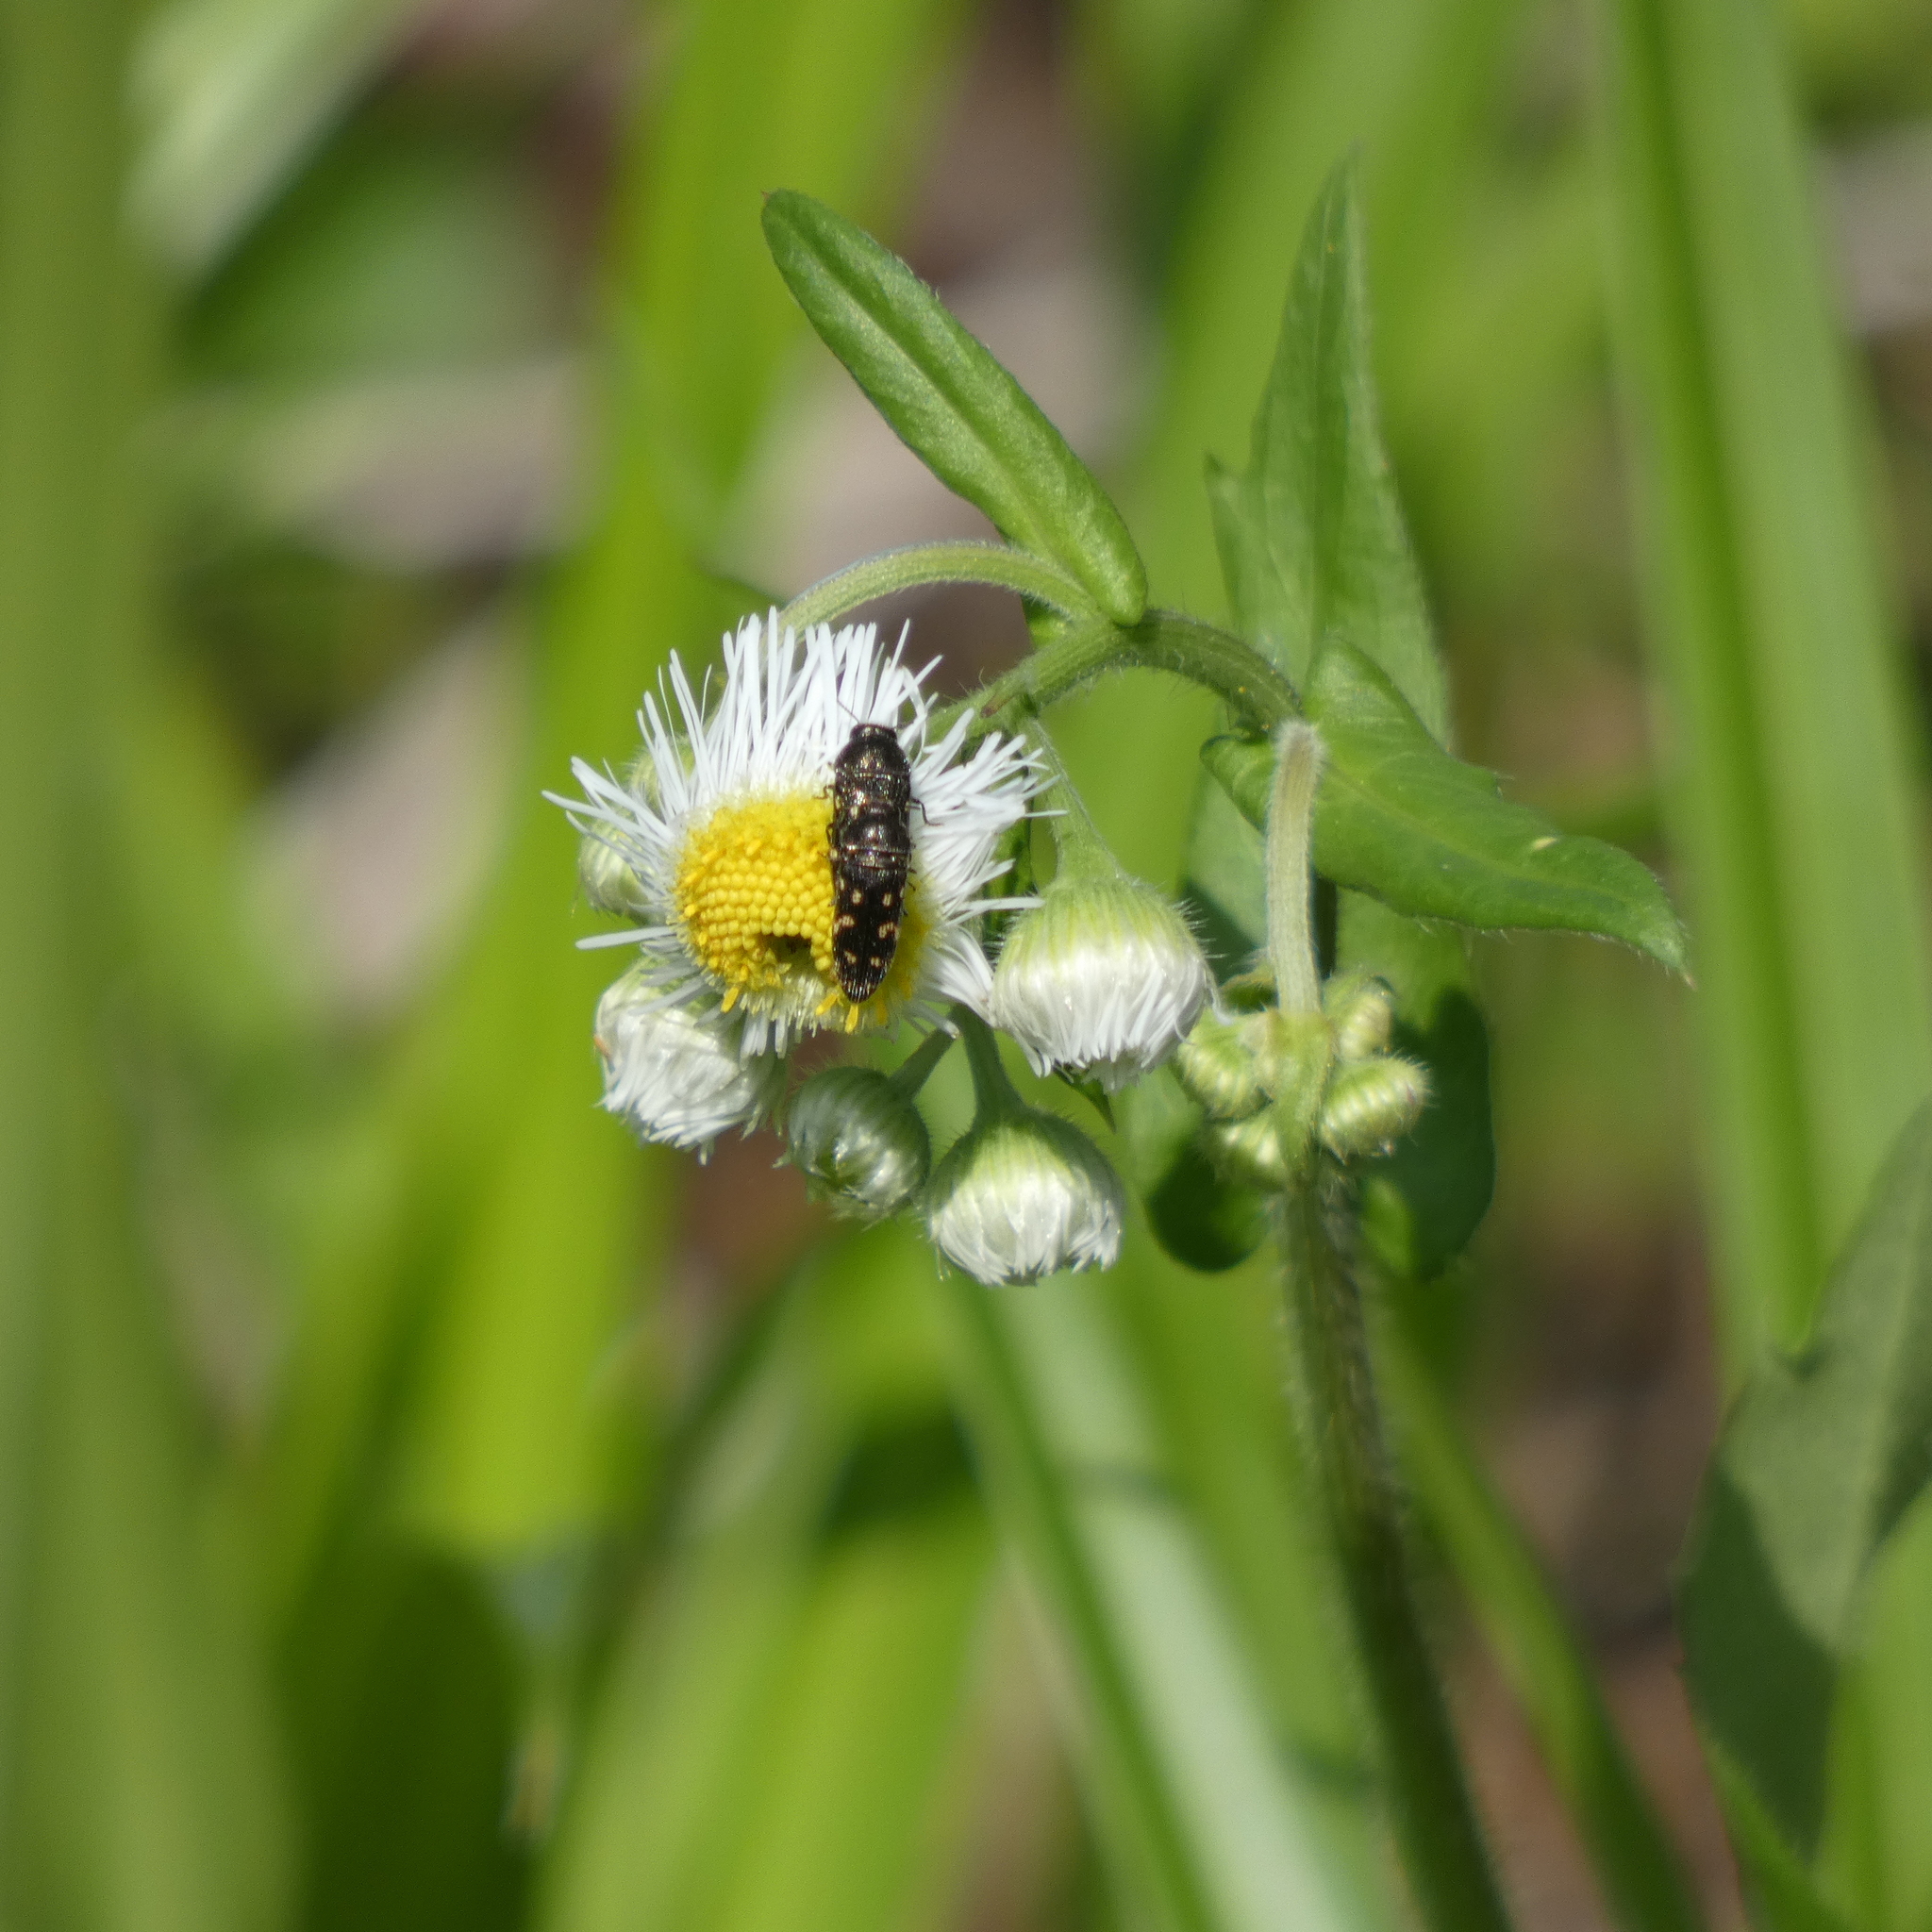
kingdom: Animalia
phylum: Arthropoda
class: Insecta
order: Coleoptera
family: Buprestidae
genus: Acmaeodera
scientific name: Acmaeodera tubulus
